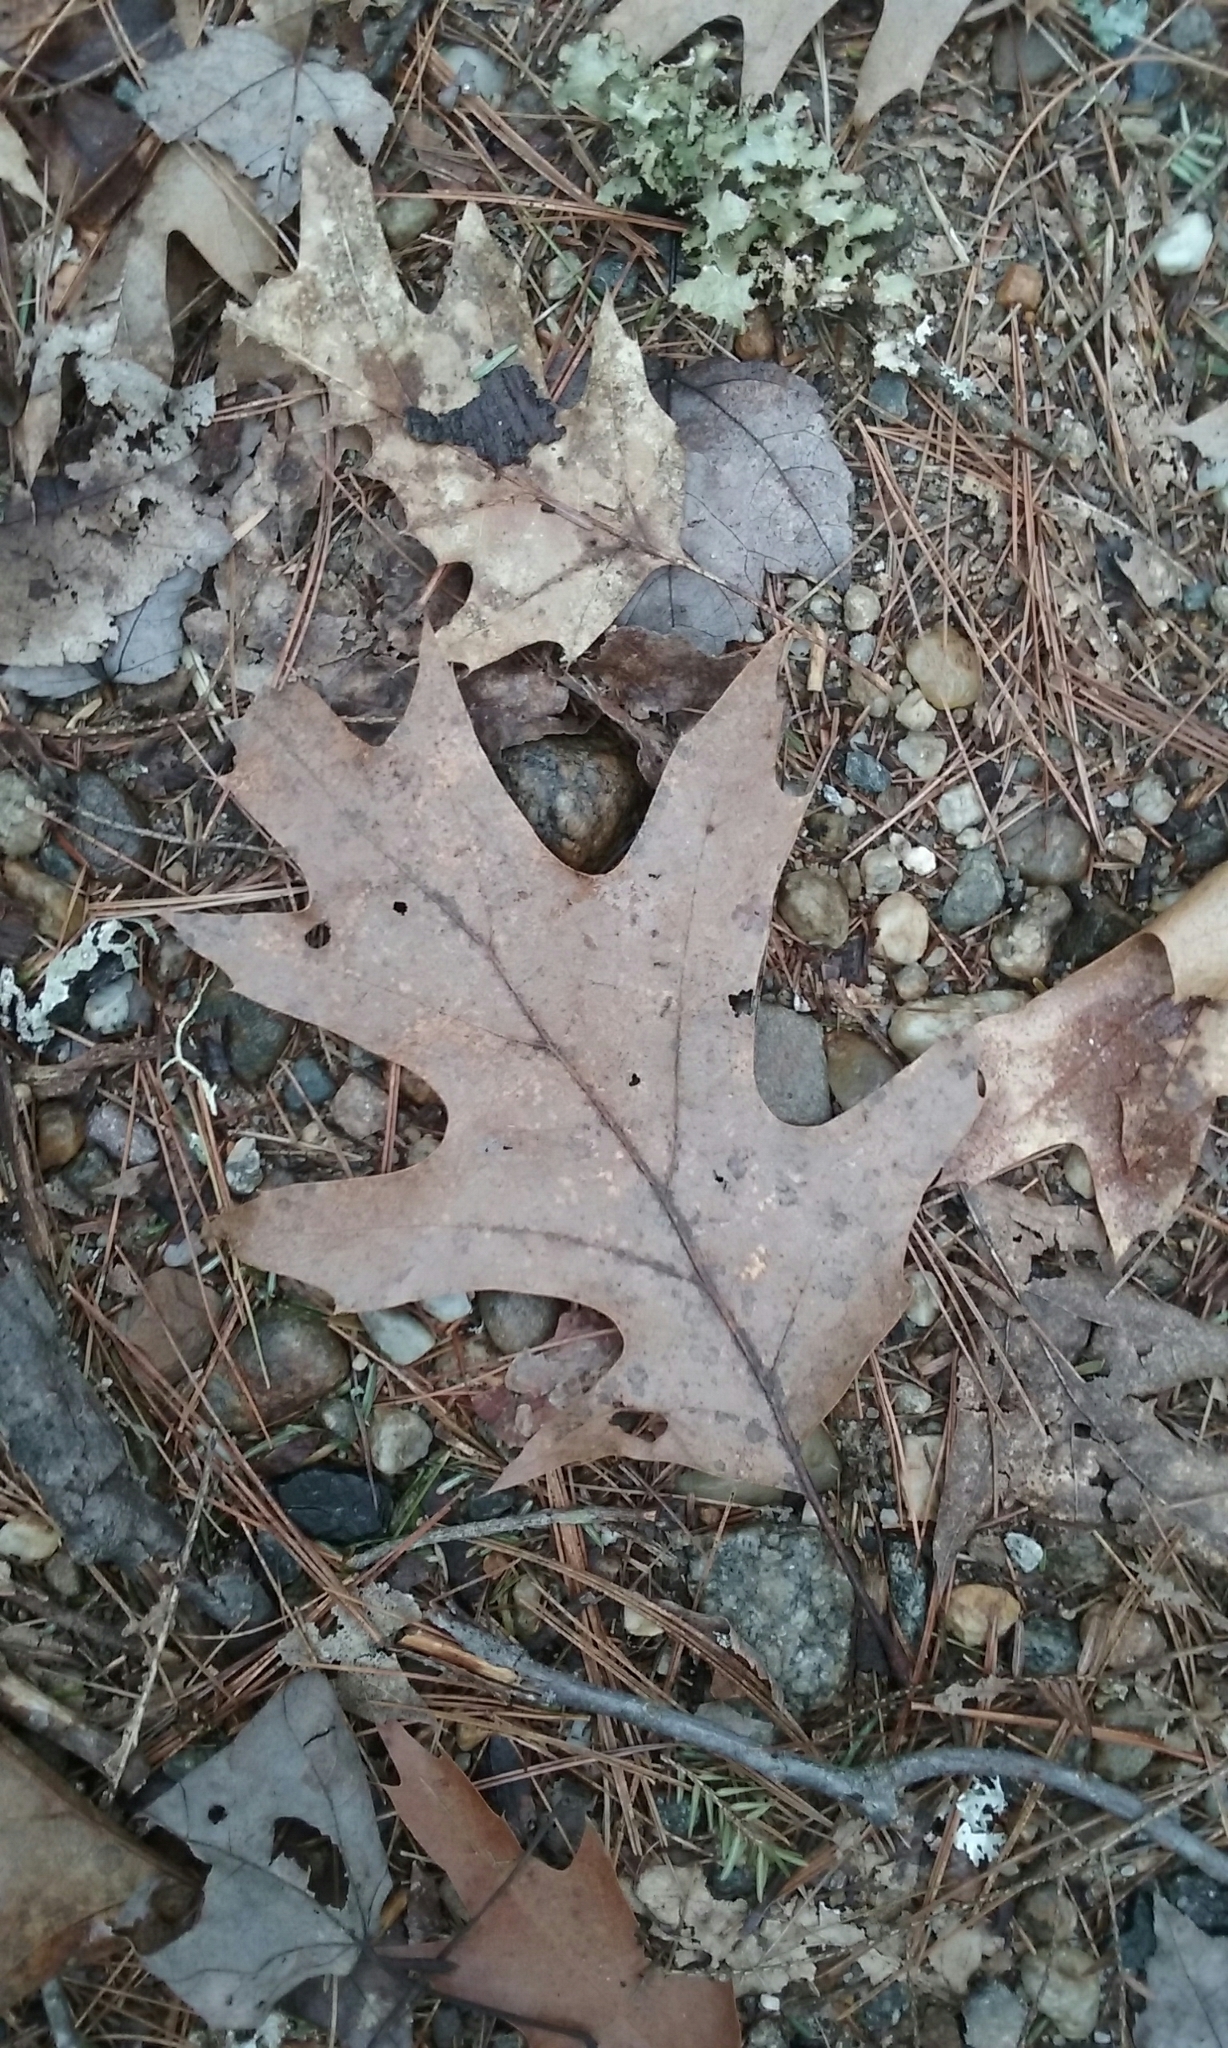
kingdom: Plantae
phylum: Tracheophyta
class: Magnoliopsida
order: Fagales
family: Fagaceae
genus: Quercus
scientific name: Quercus rubra
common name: Red oak
